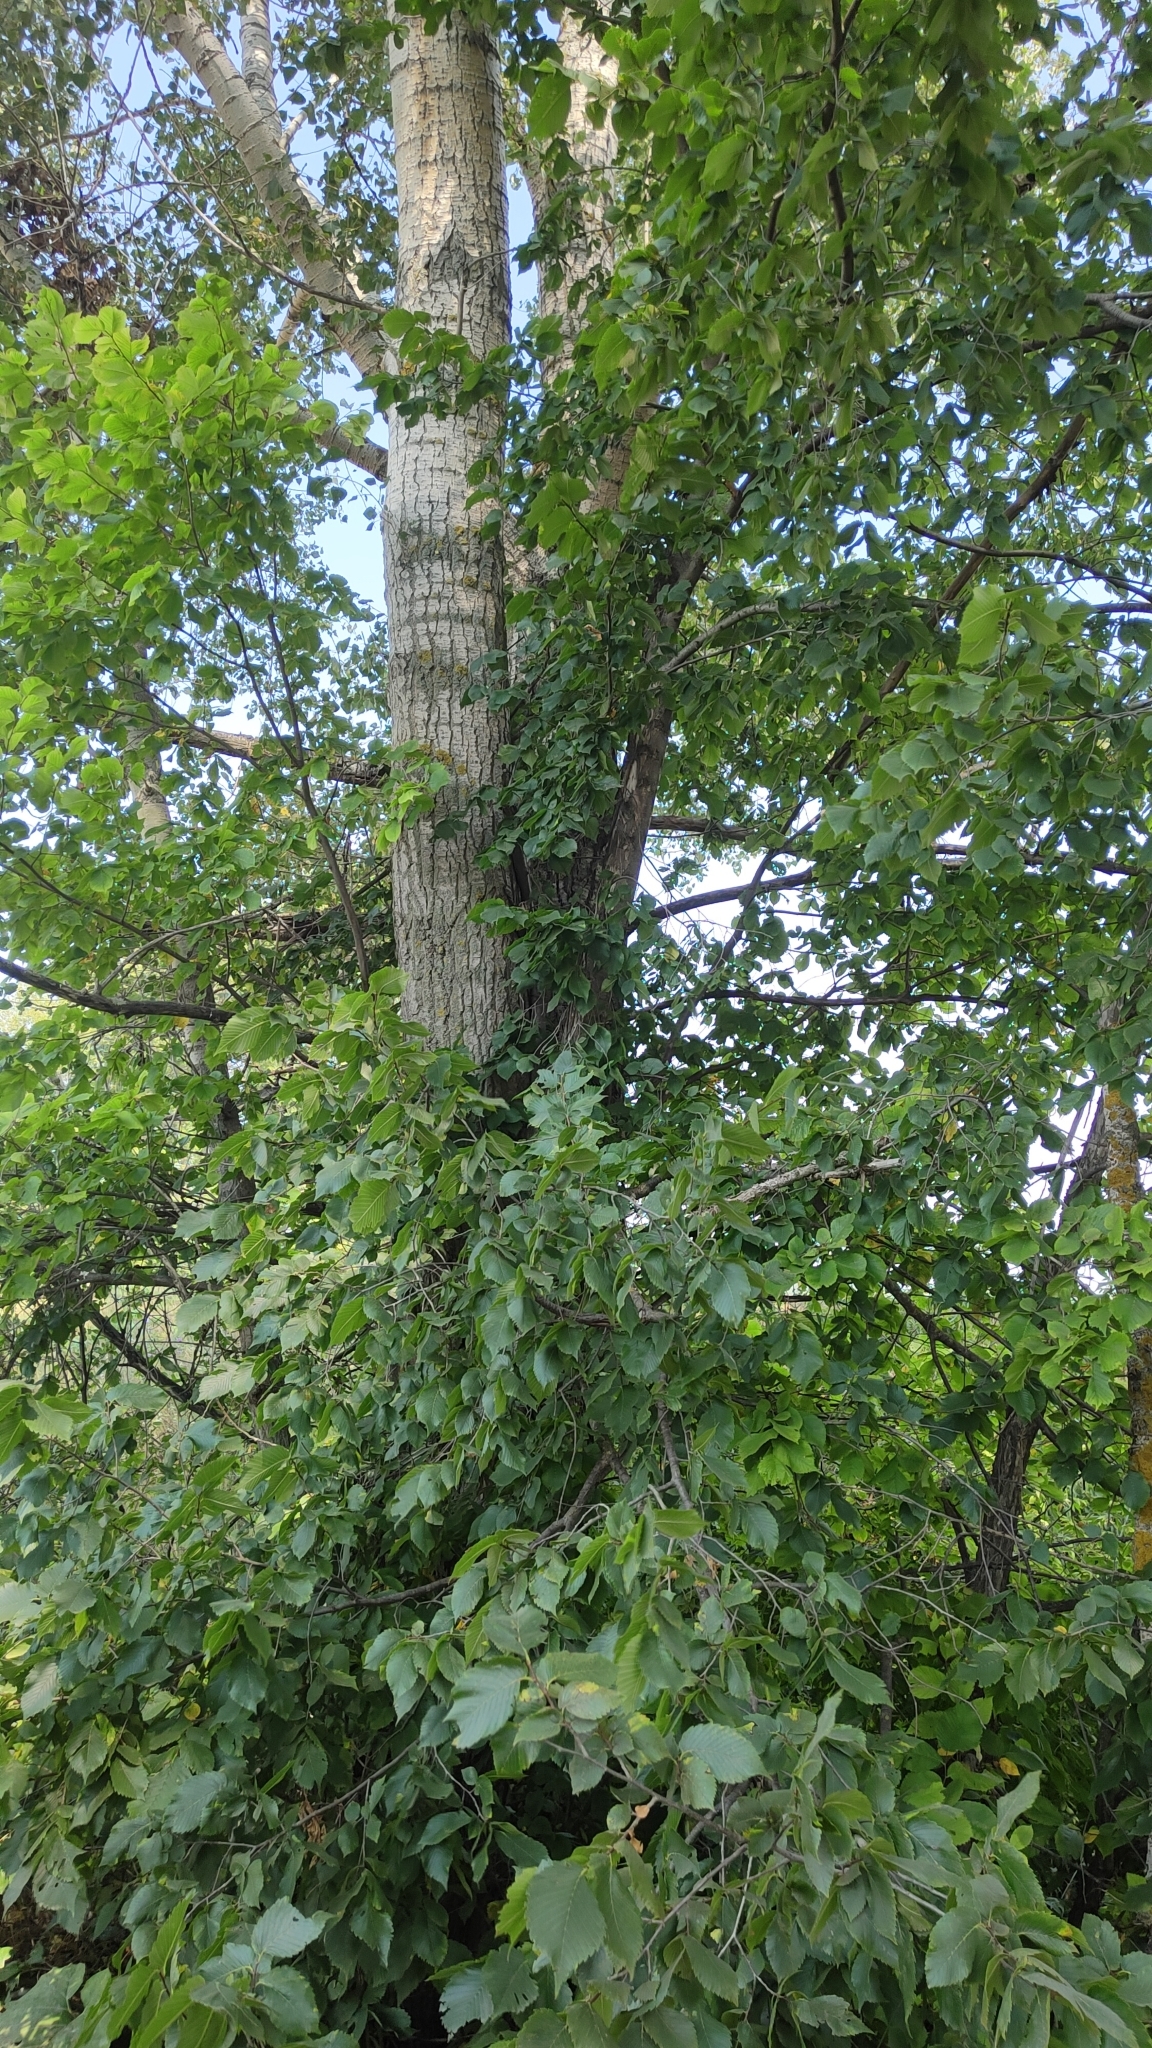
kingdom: Plantae
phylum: Tracheophyta
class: Magnoliopsida
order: Rosales
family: Ulmaceae
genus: Ulmus
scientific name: Ulmus laevis
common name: European white-elm
